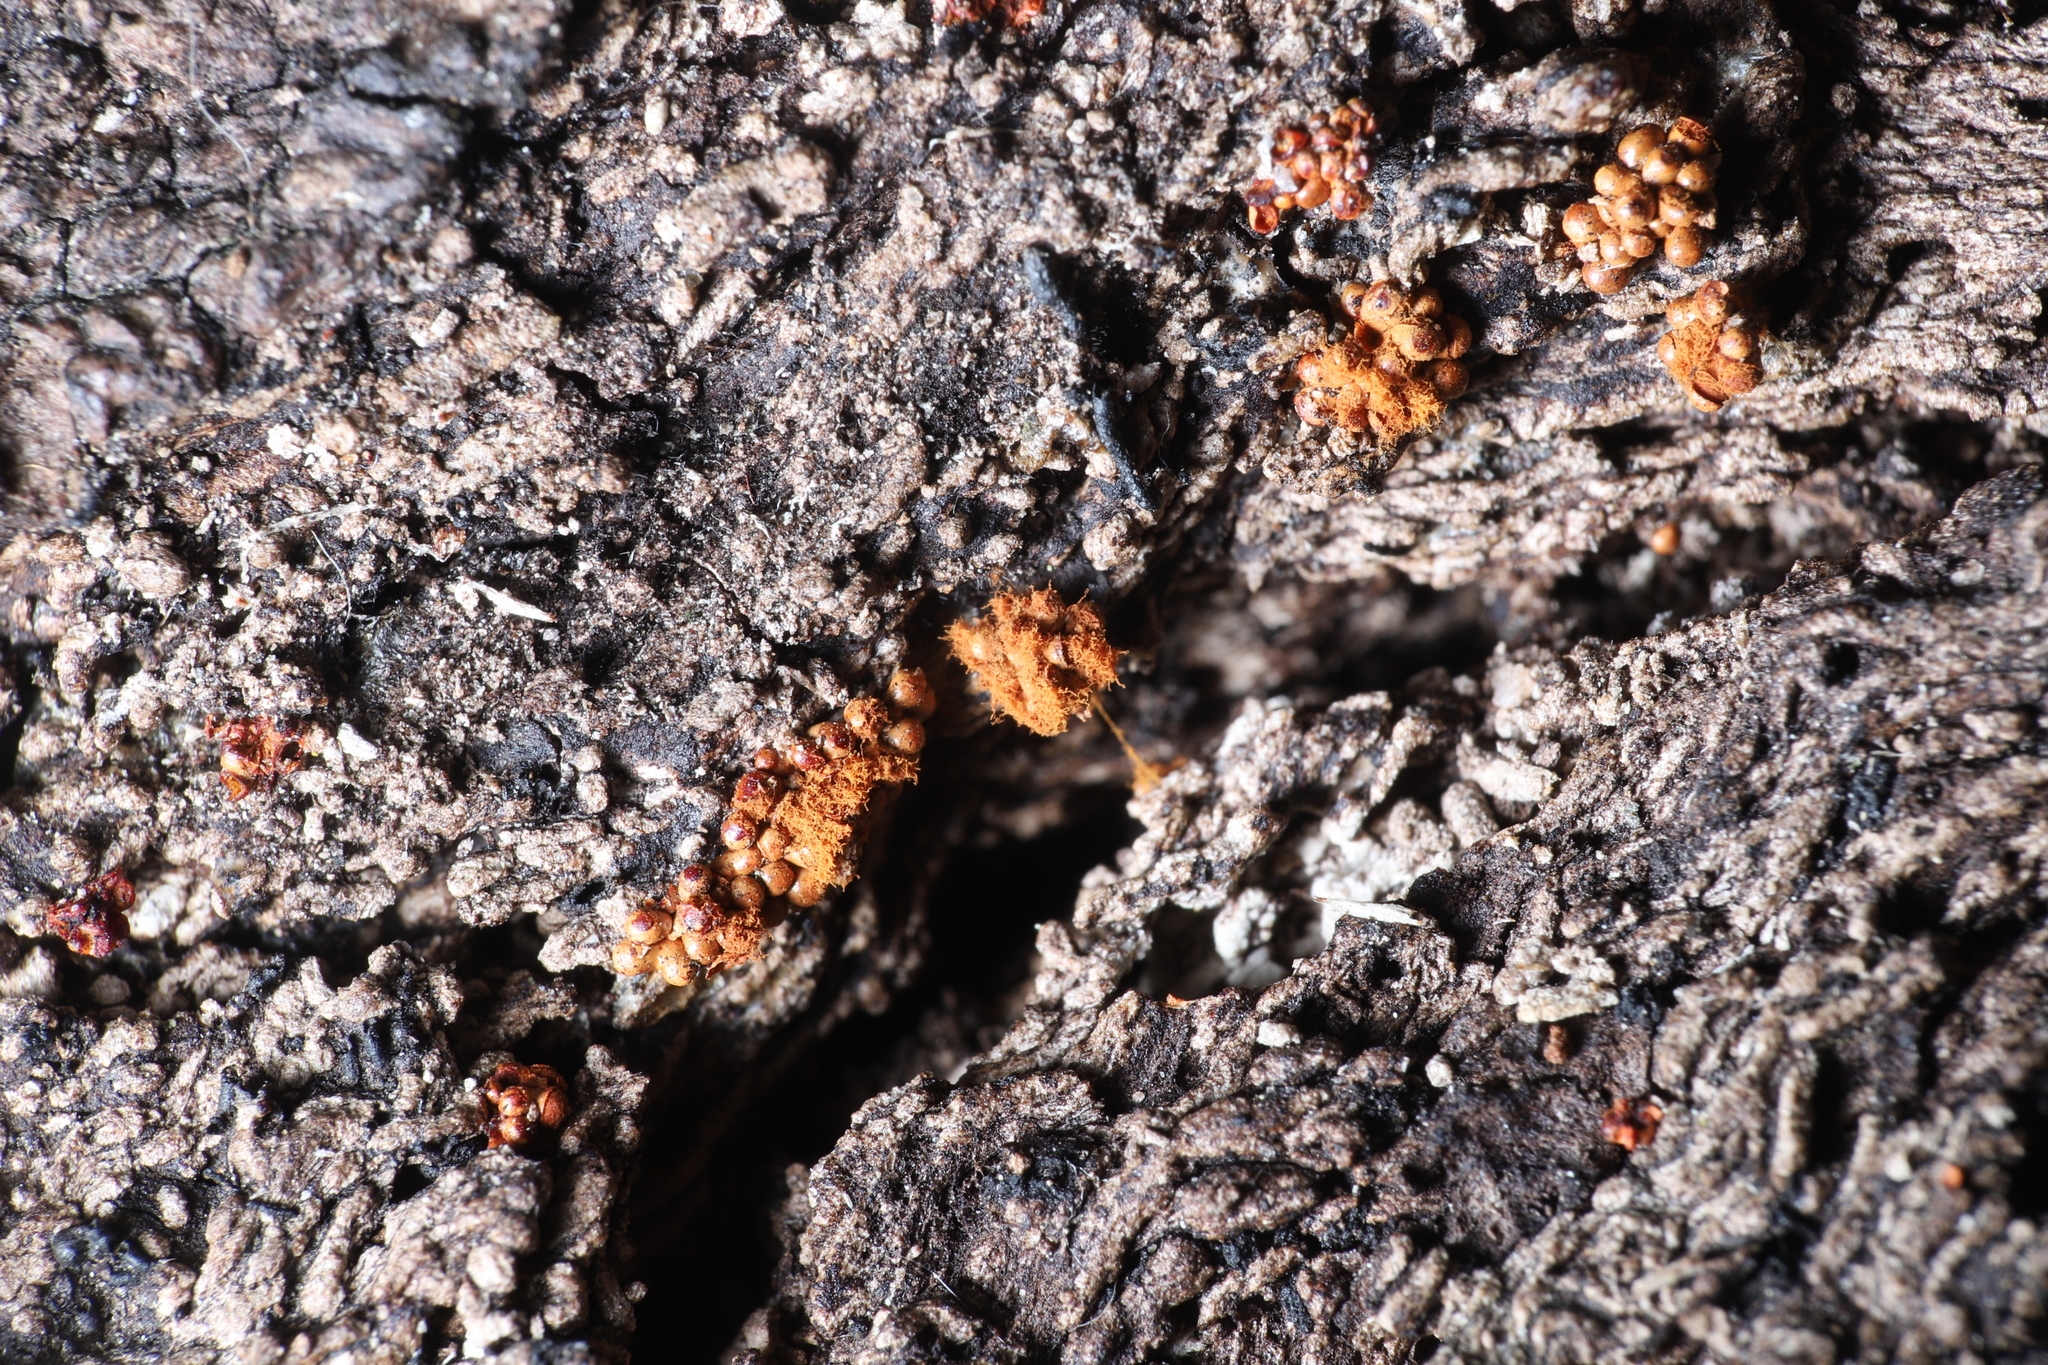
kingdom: Protozoa
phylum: Mycetozoa
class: Myxomycetes
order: Trichiales
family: Trichiaceae
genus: Metatrichia
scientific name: Metatrichia vesparia
